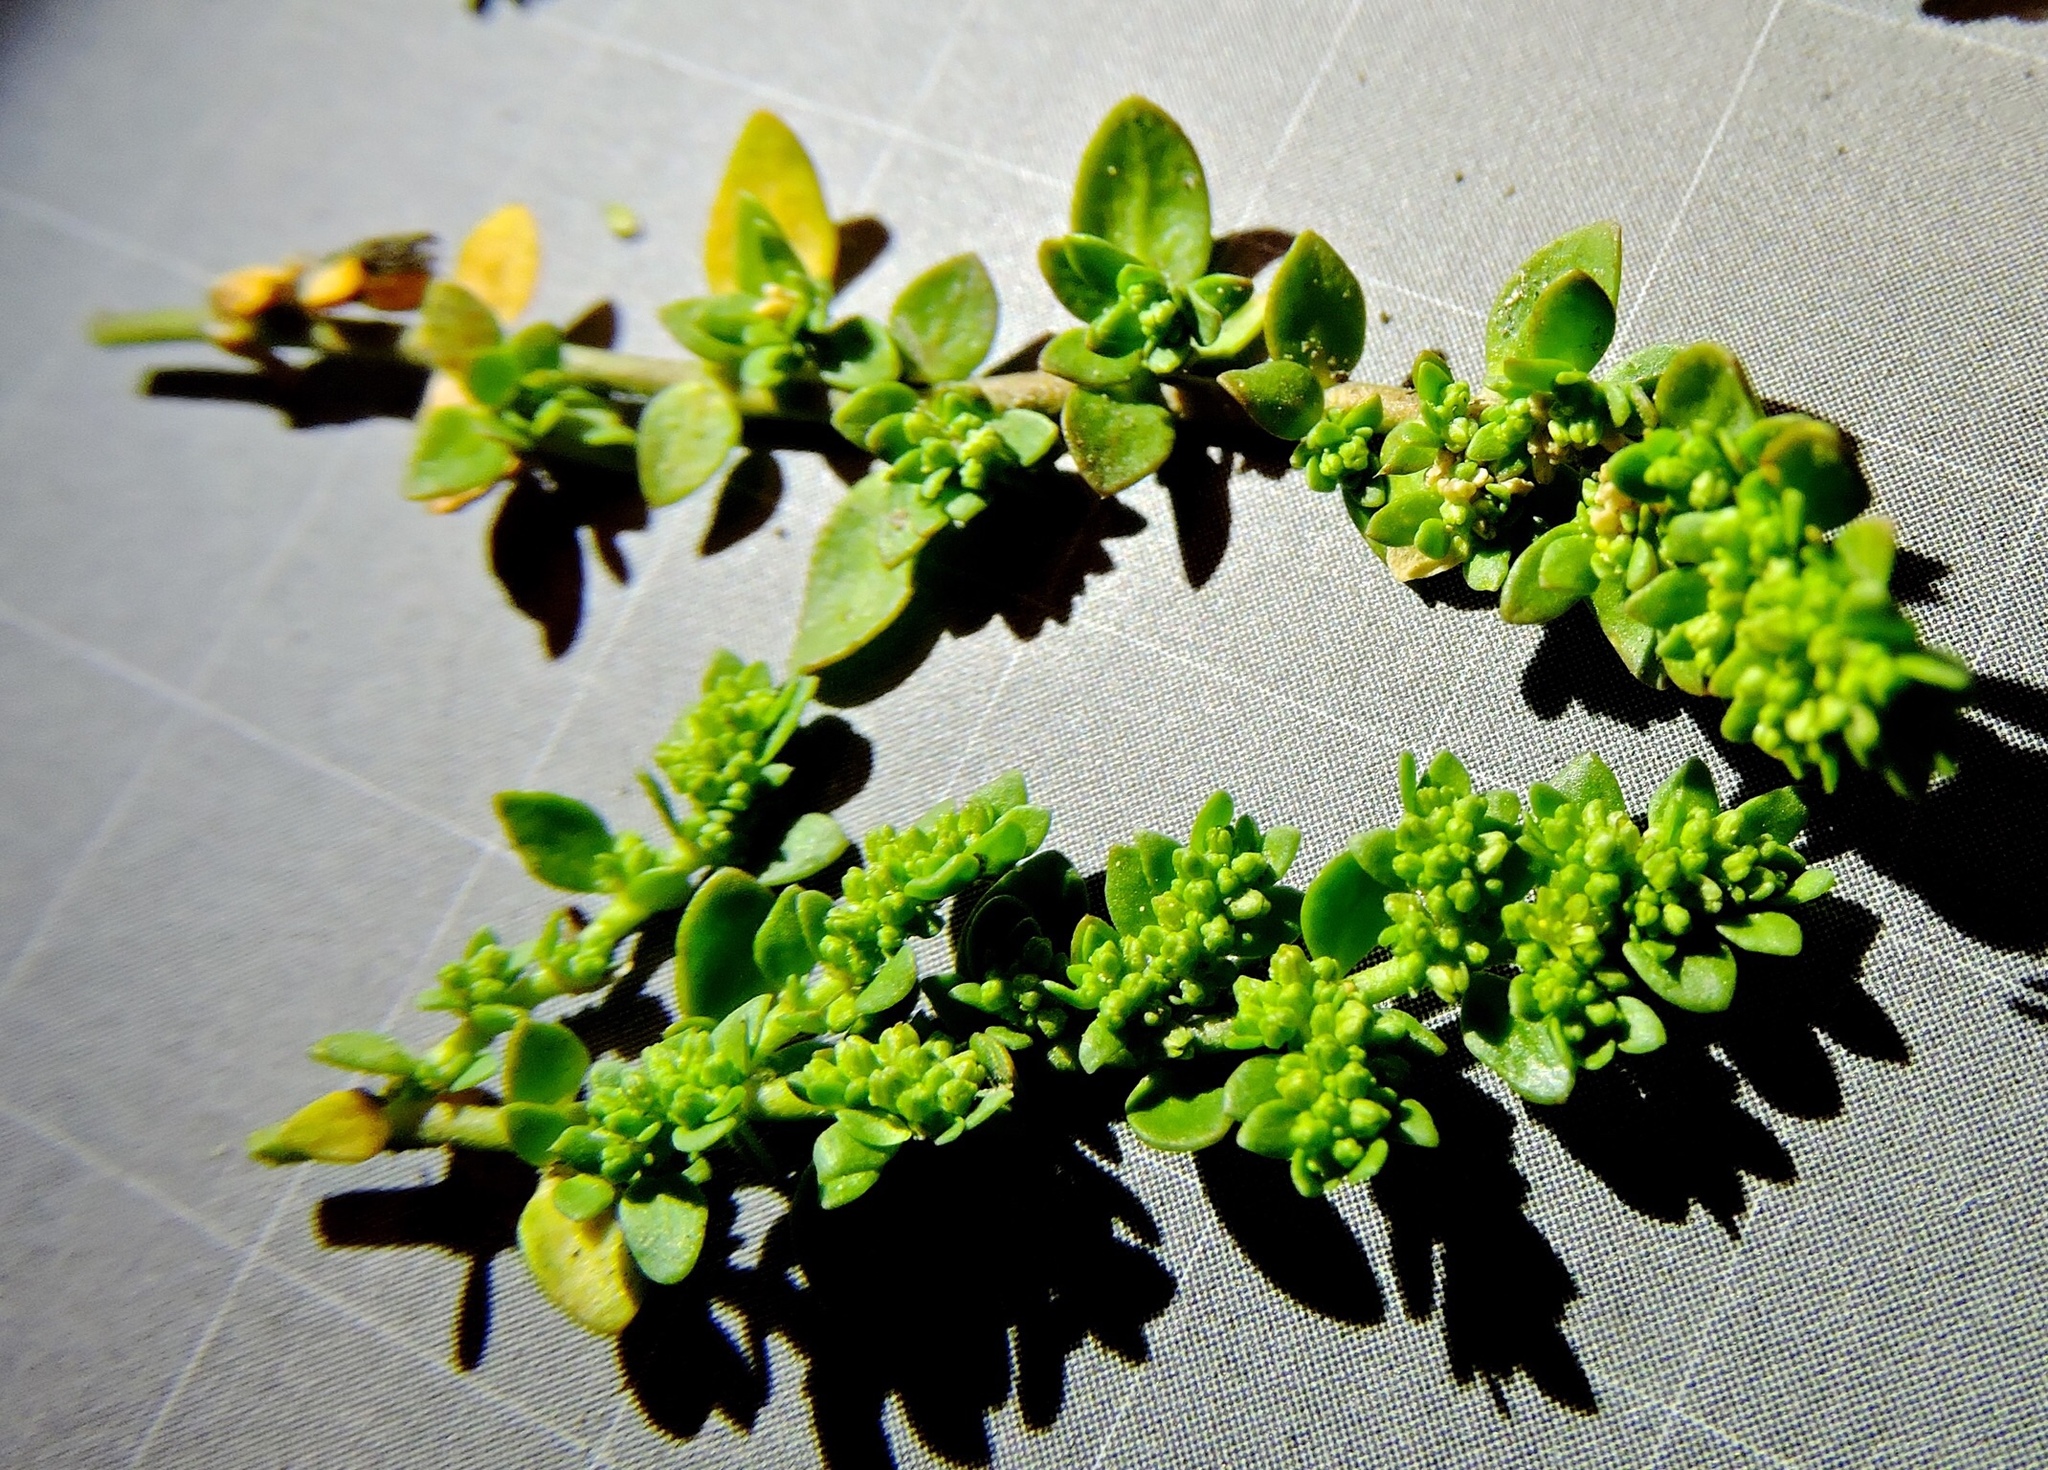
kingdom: Plantae
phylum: Tracheophyta
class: Magnoliopsida
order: Caryophyllales
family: Caryophyllaceae
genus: Herniaria
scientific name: Herniaria glabra
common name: Smooth rupturewort
